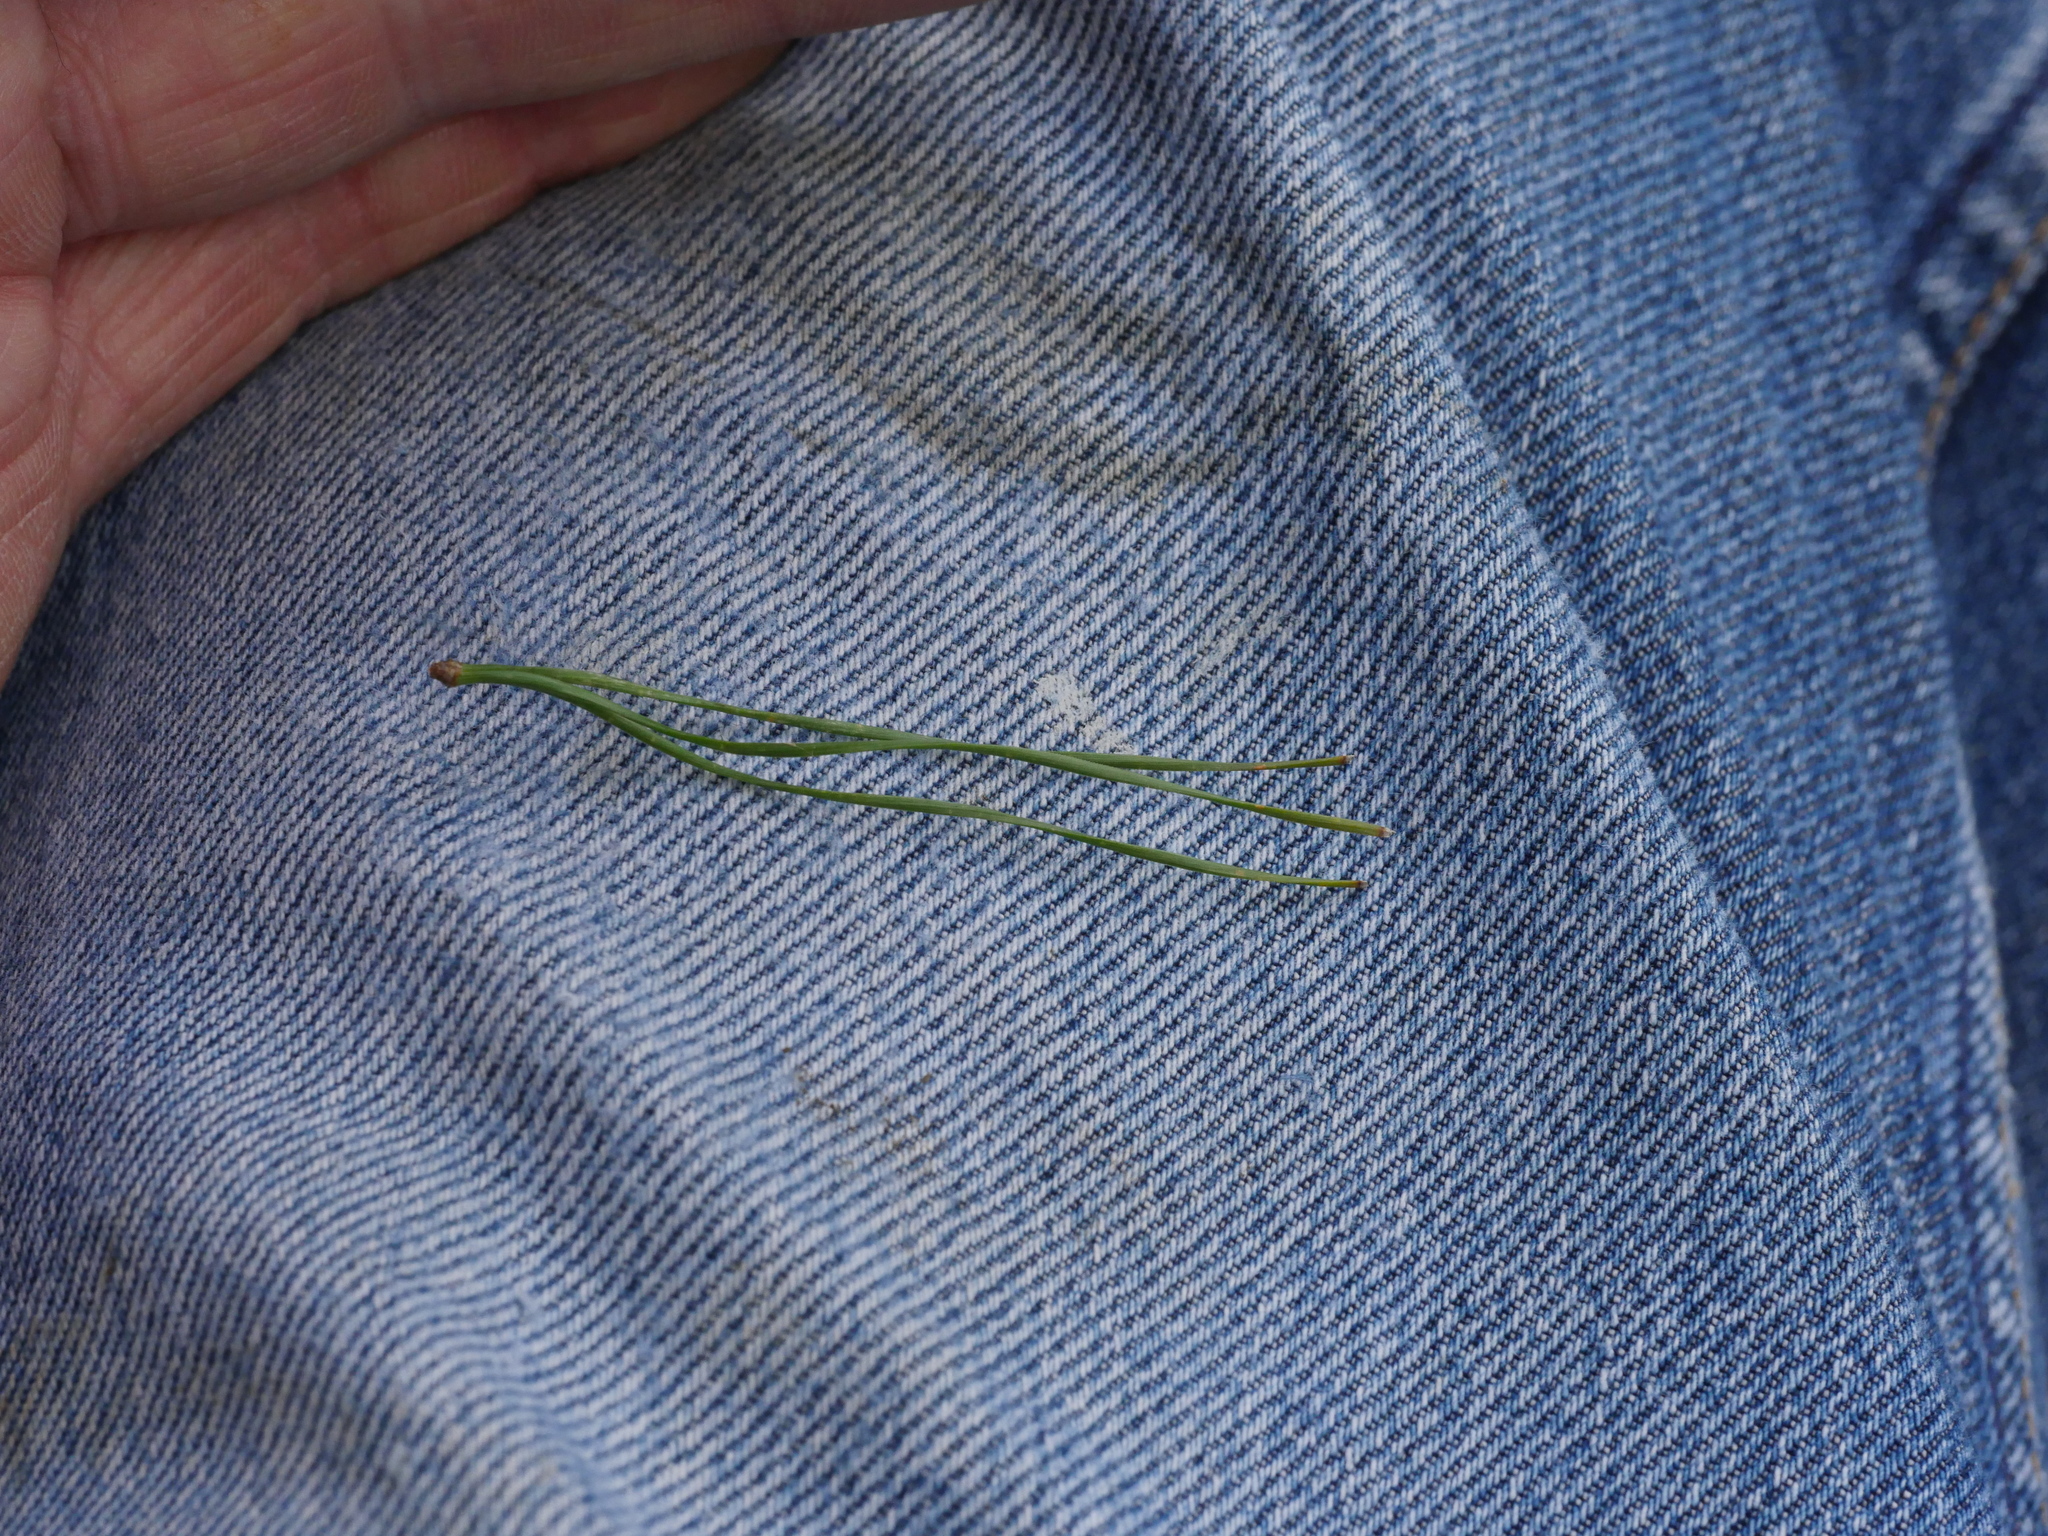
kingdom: Plantae
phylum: Tracheophyta
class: Pinopsida
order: Pinales
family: Pinaceae
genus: Pinus
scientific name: Pinus radiata
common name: Monterey pine
